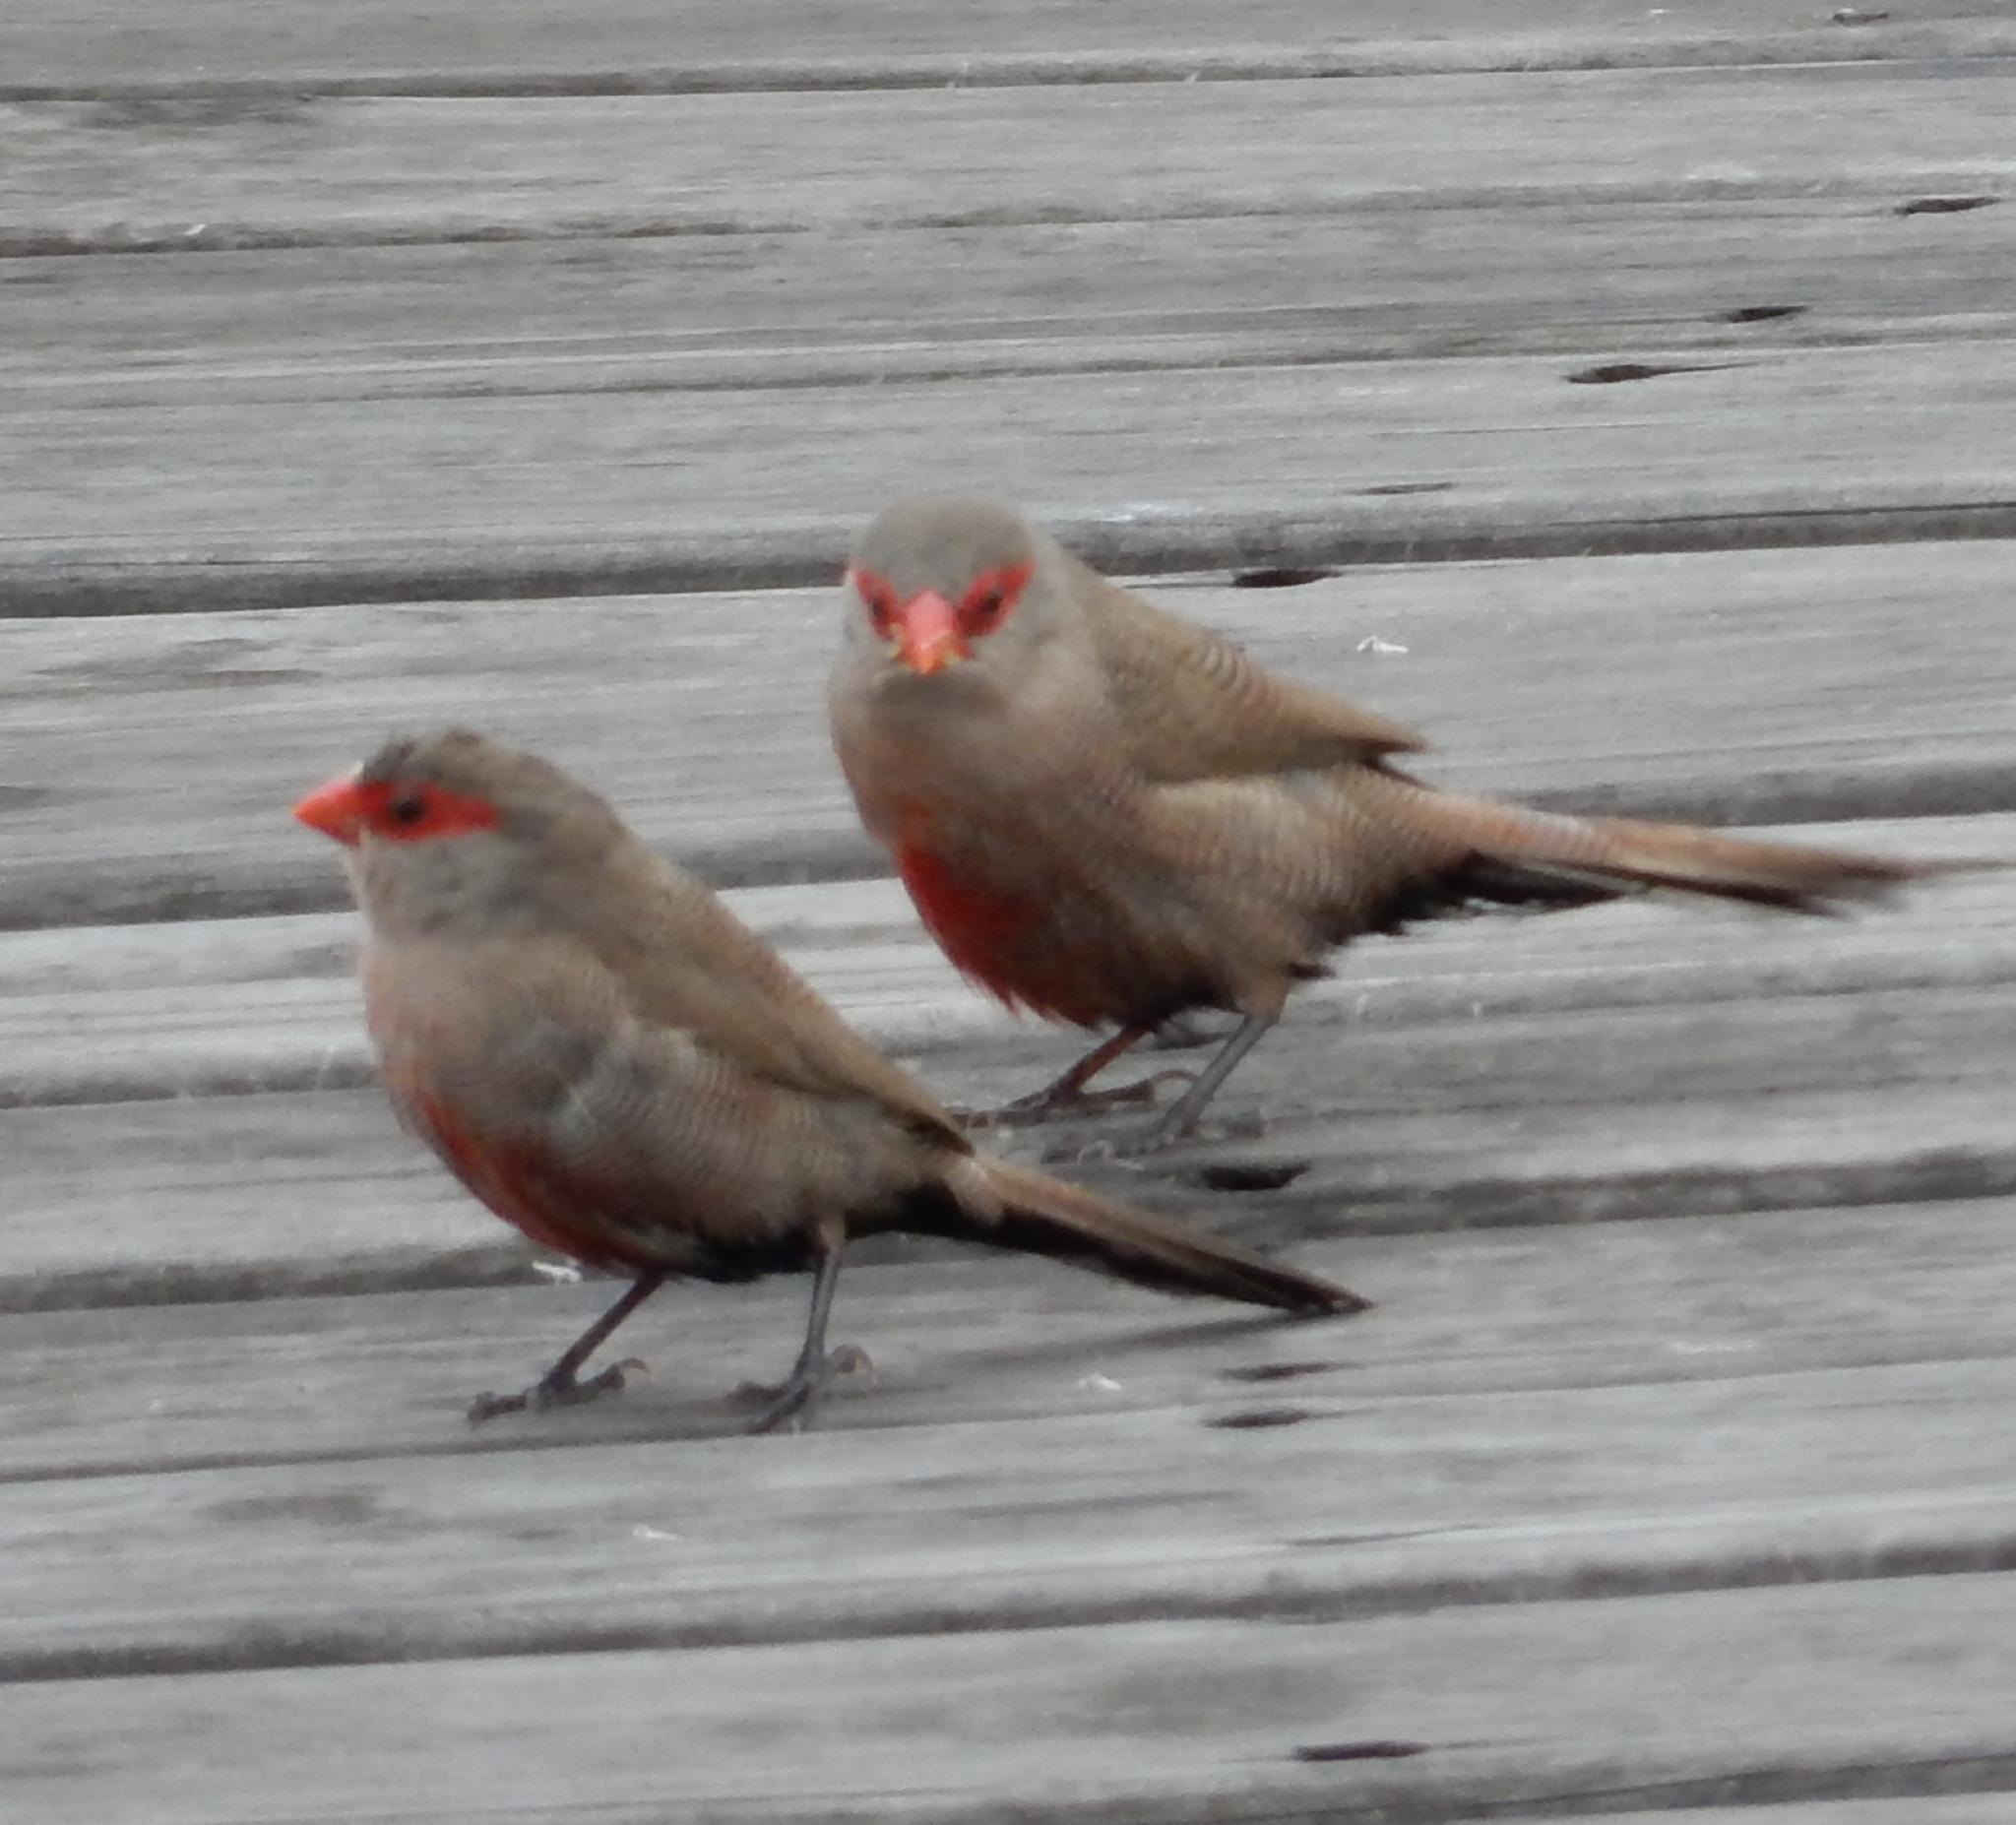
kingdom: Animalia
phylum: Chordata
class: Aves
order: Passeriformes
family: Estrildidae
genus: Estrilda
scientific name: Estrilda astrild
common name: Common waxbill
